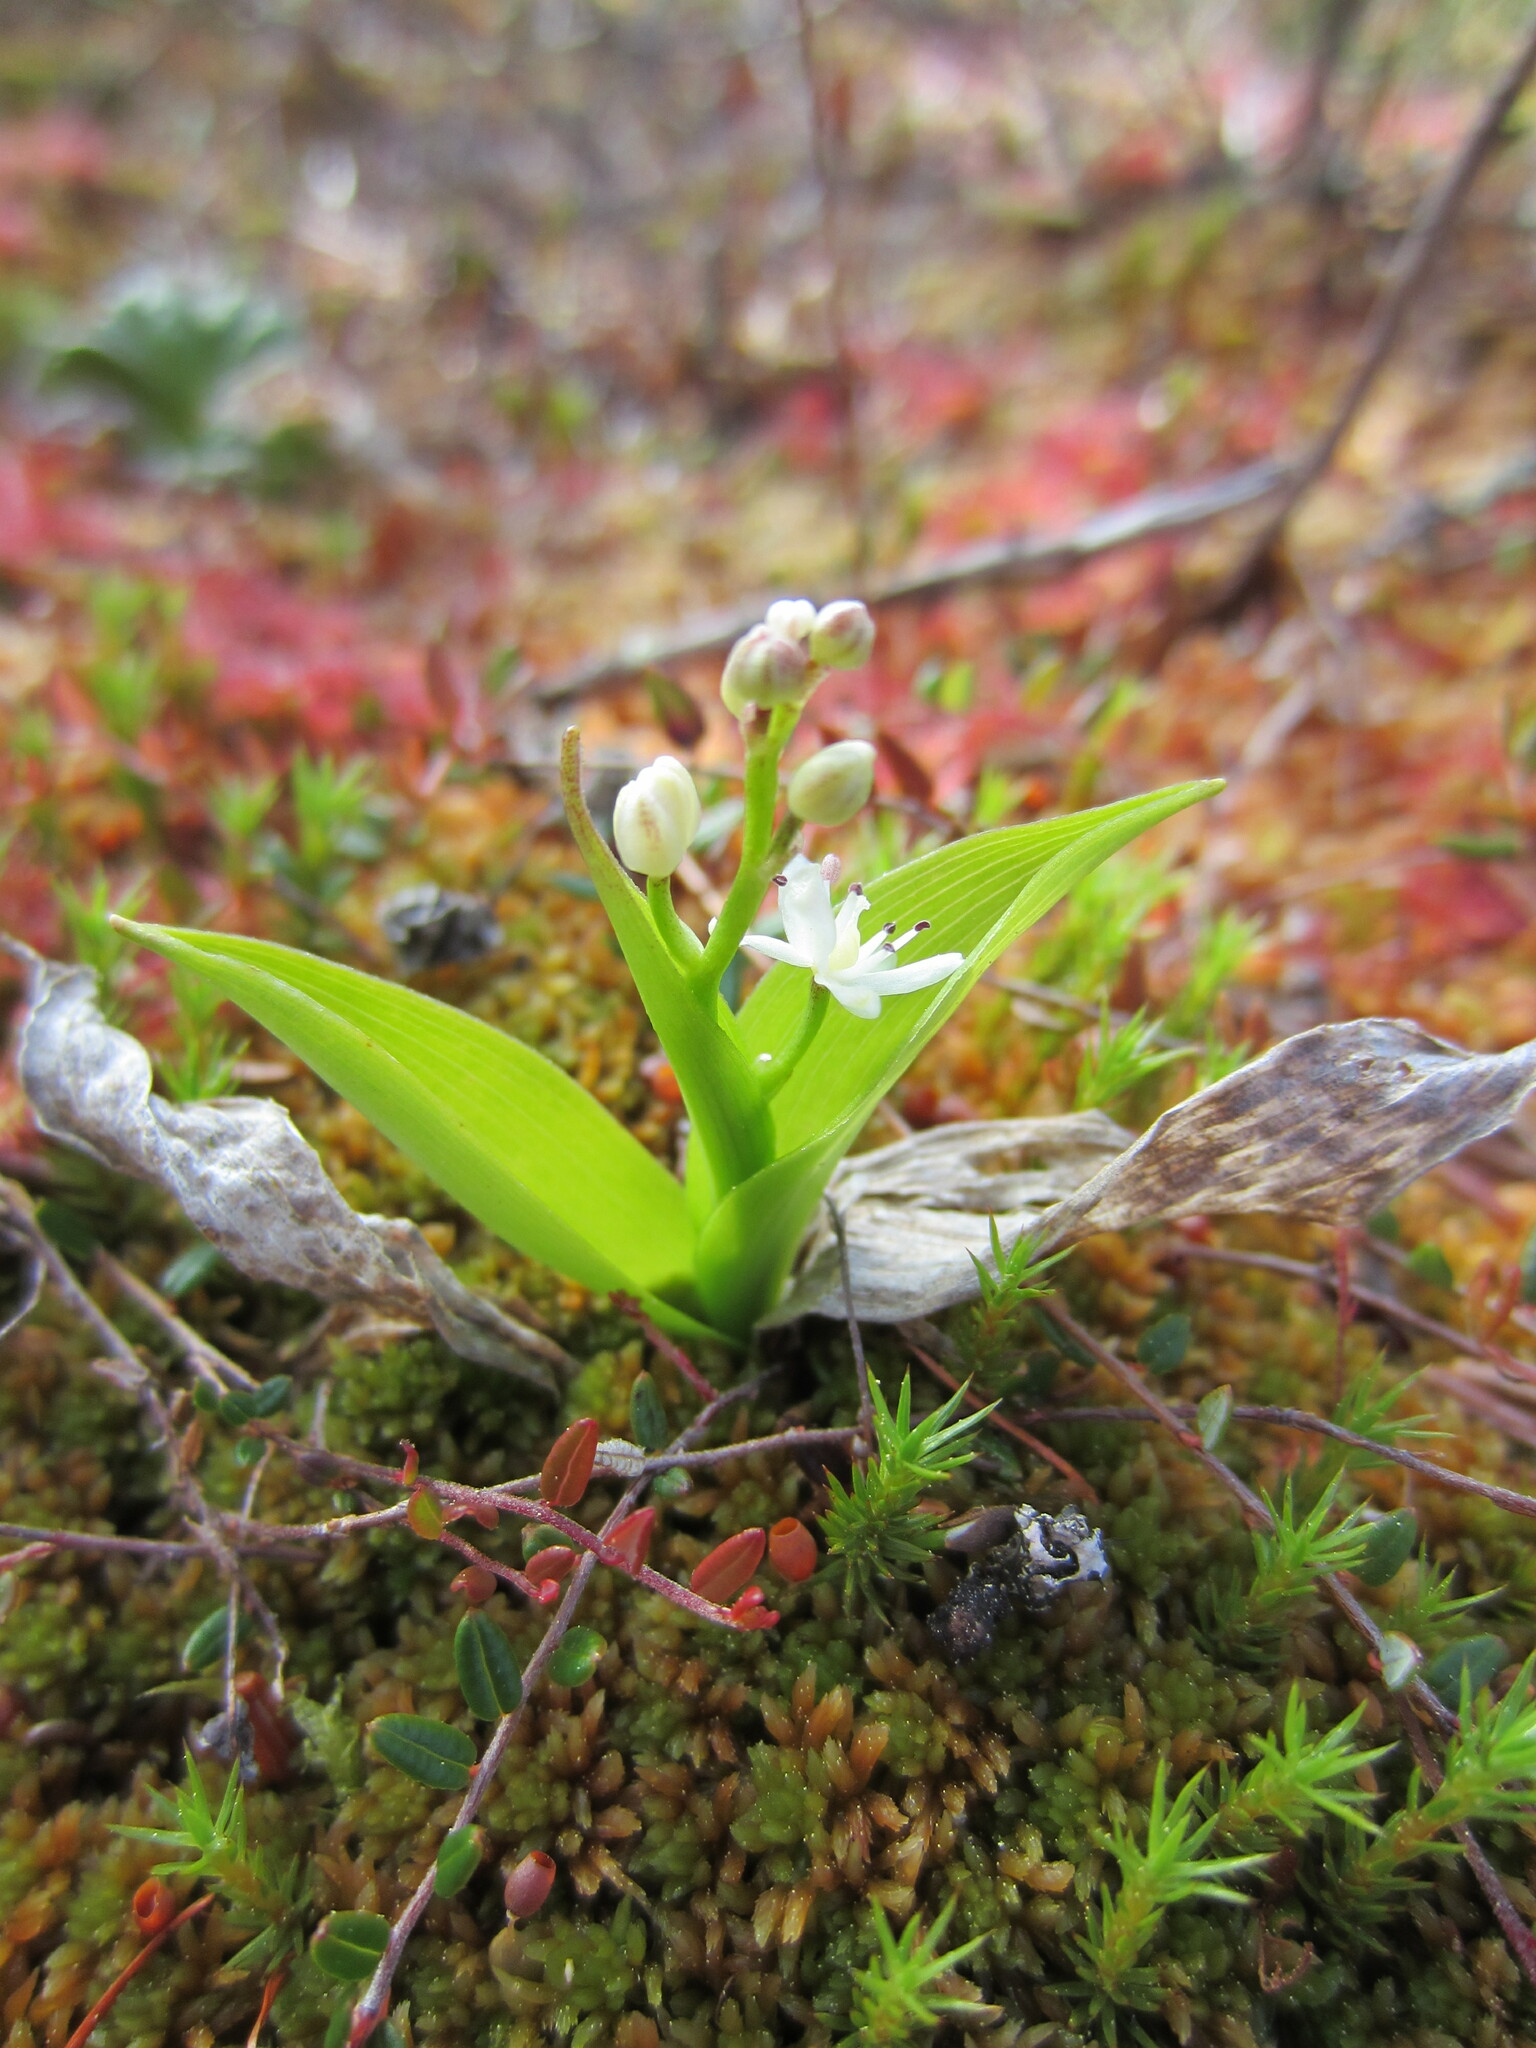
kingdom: Plantae
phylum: Tracheophyta
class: Liliopsida
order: Asparagales
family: Asparagaceae
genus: Maianthemum
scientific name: Maianthemum trifolium
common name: Swamp false solomon's seal
